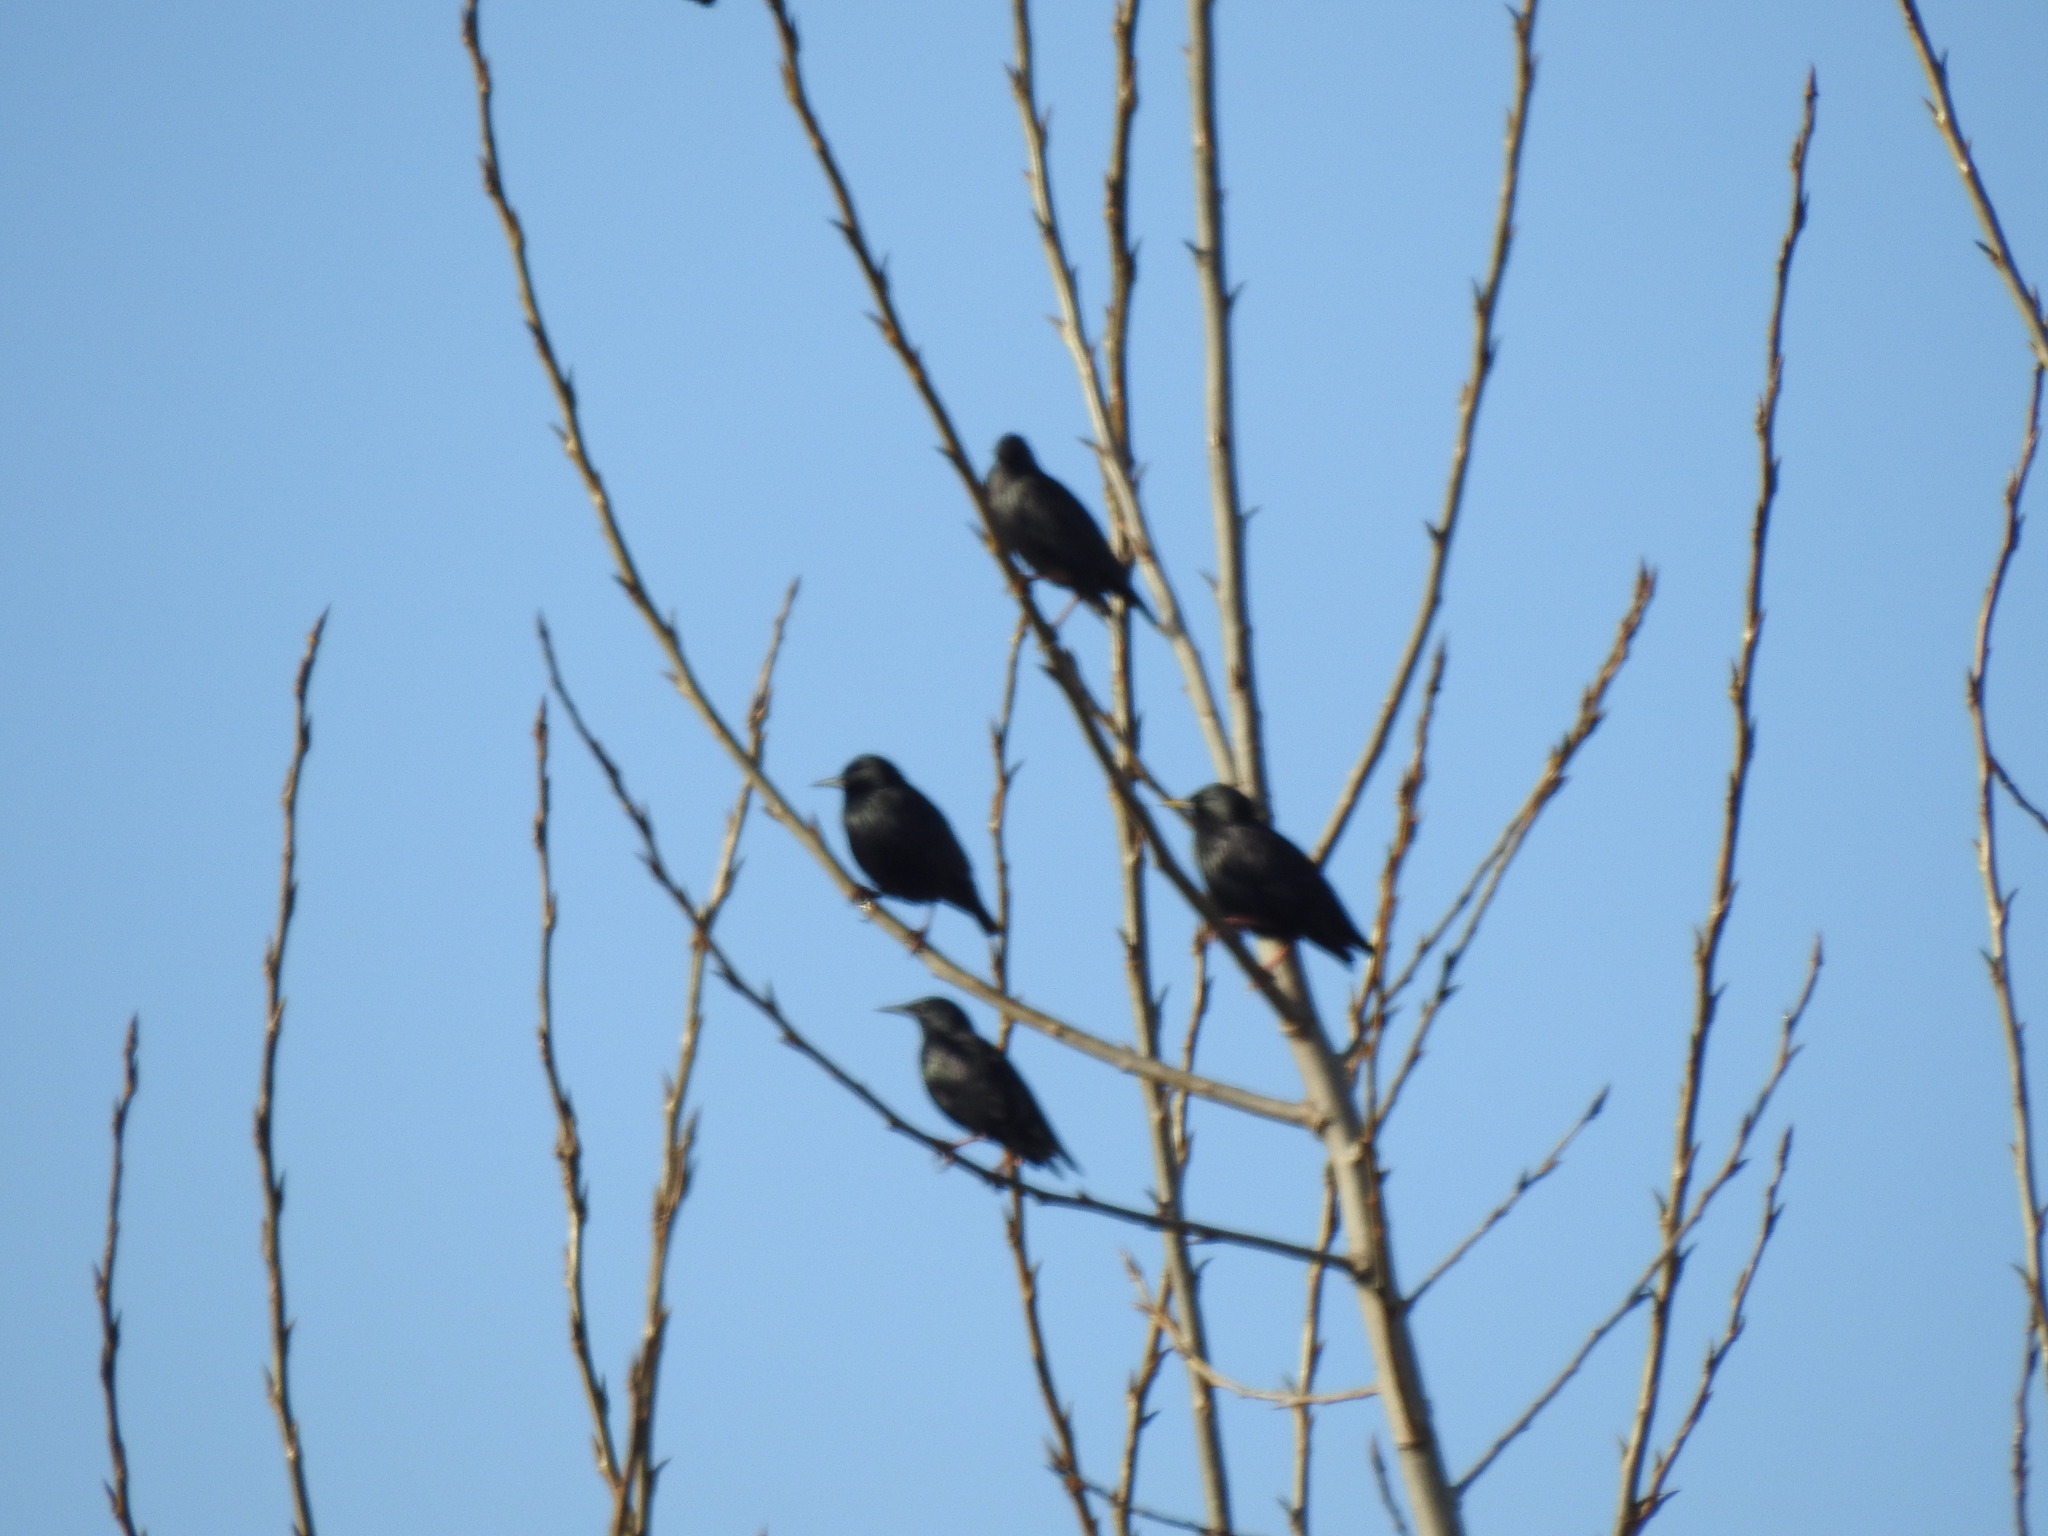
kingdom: Animalia
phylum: Chordata
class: Aves
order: Passeriformes
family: Sturnidae
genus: Sturnus
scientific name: Sturnus unicolor
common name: Spotless starling
